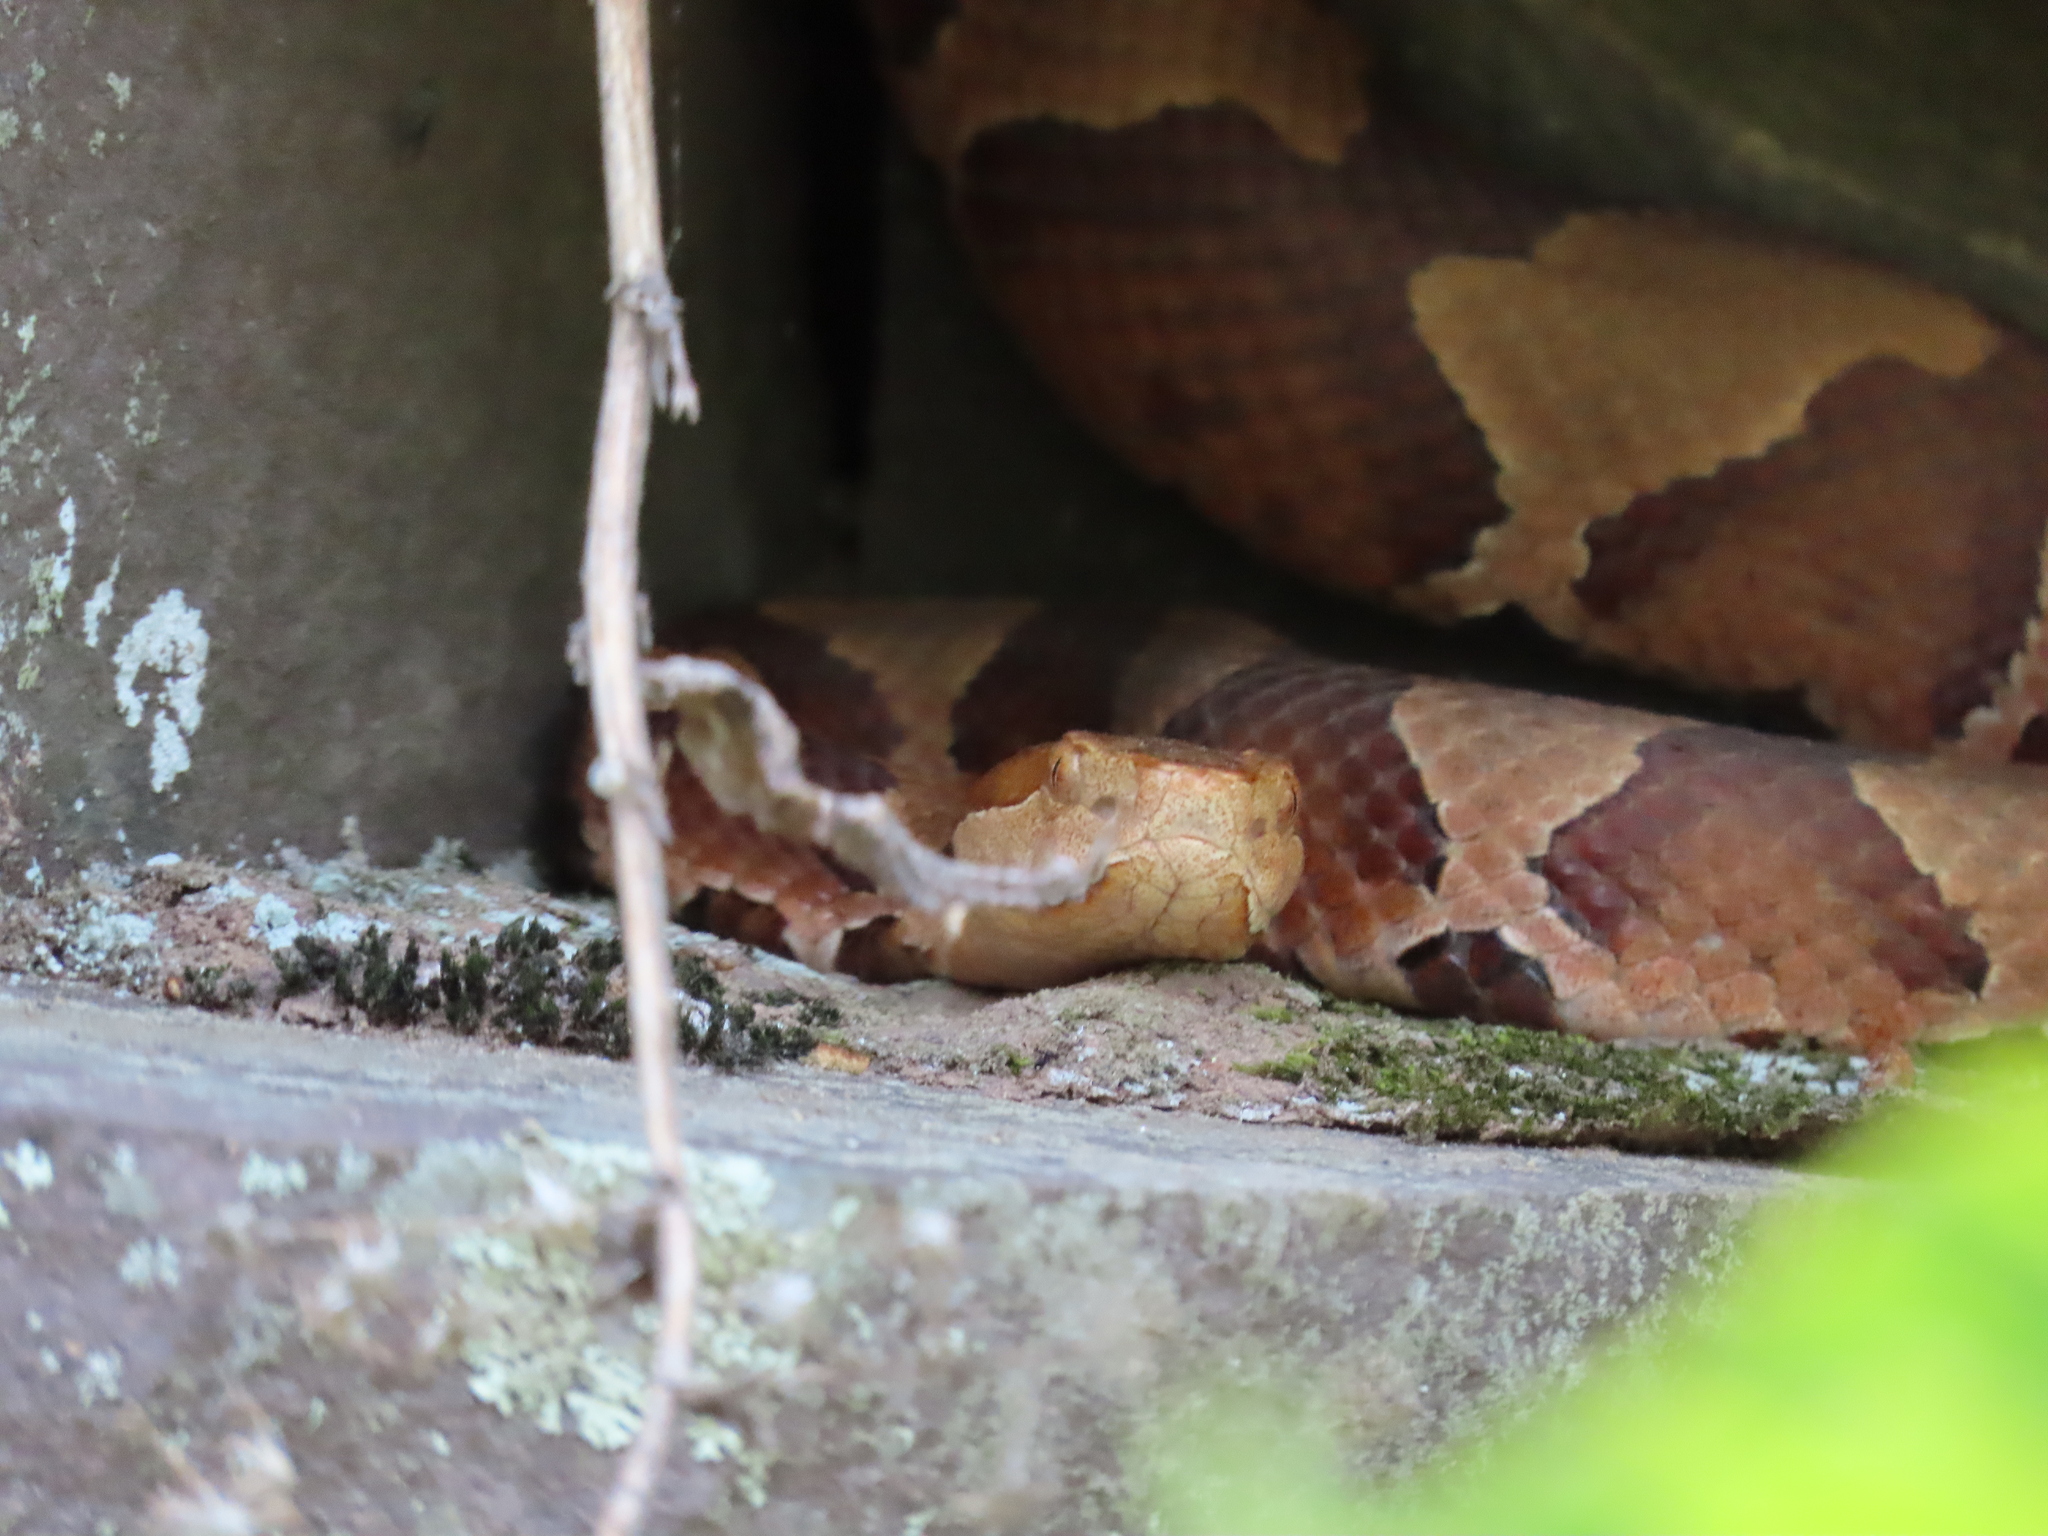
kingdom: Animalia
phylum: Chordata
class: Squamata
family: Viperidae
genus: Agkistrodon
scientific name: Agkistrodon contortrix
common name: Northern copperhead
